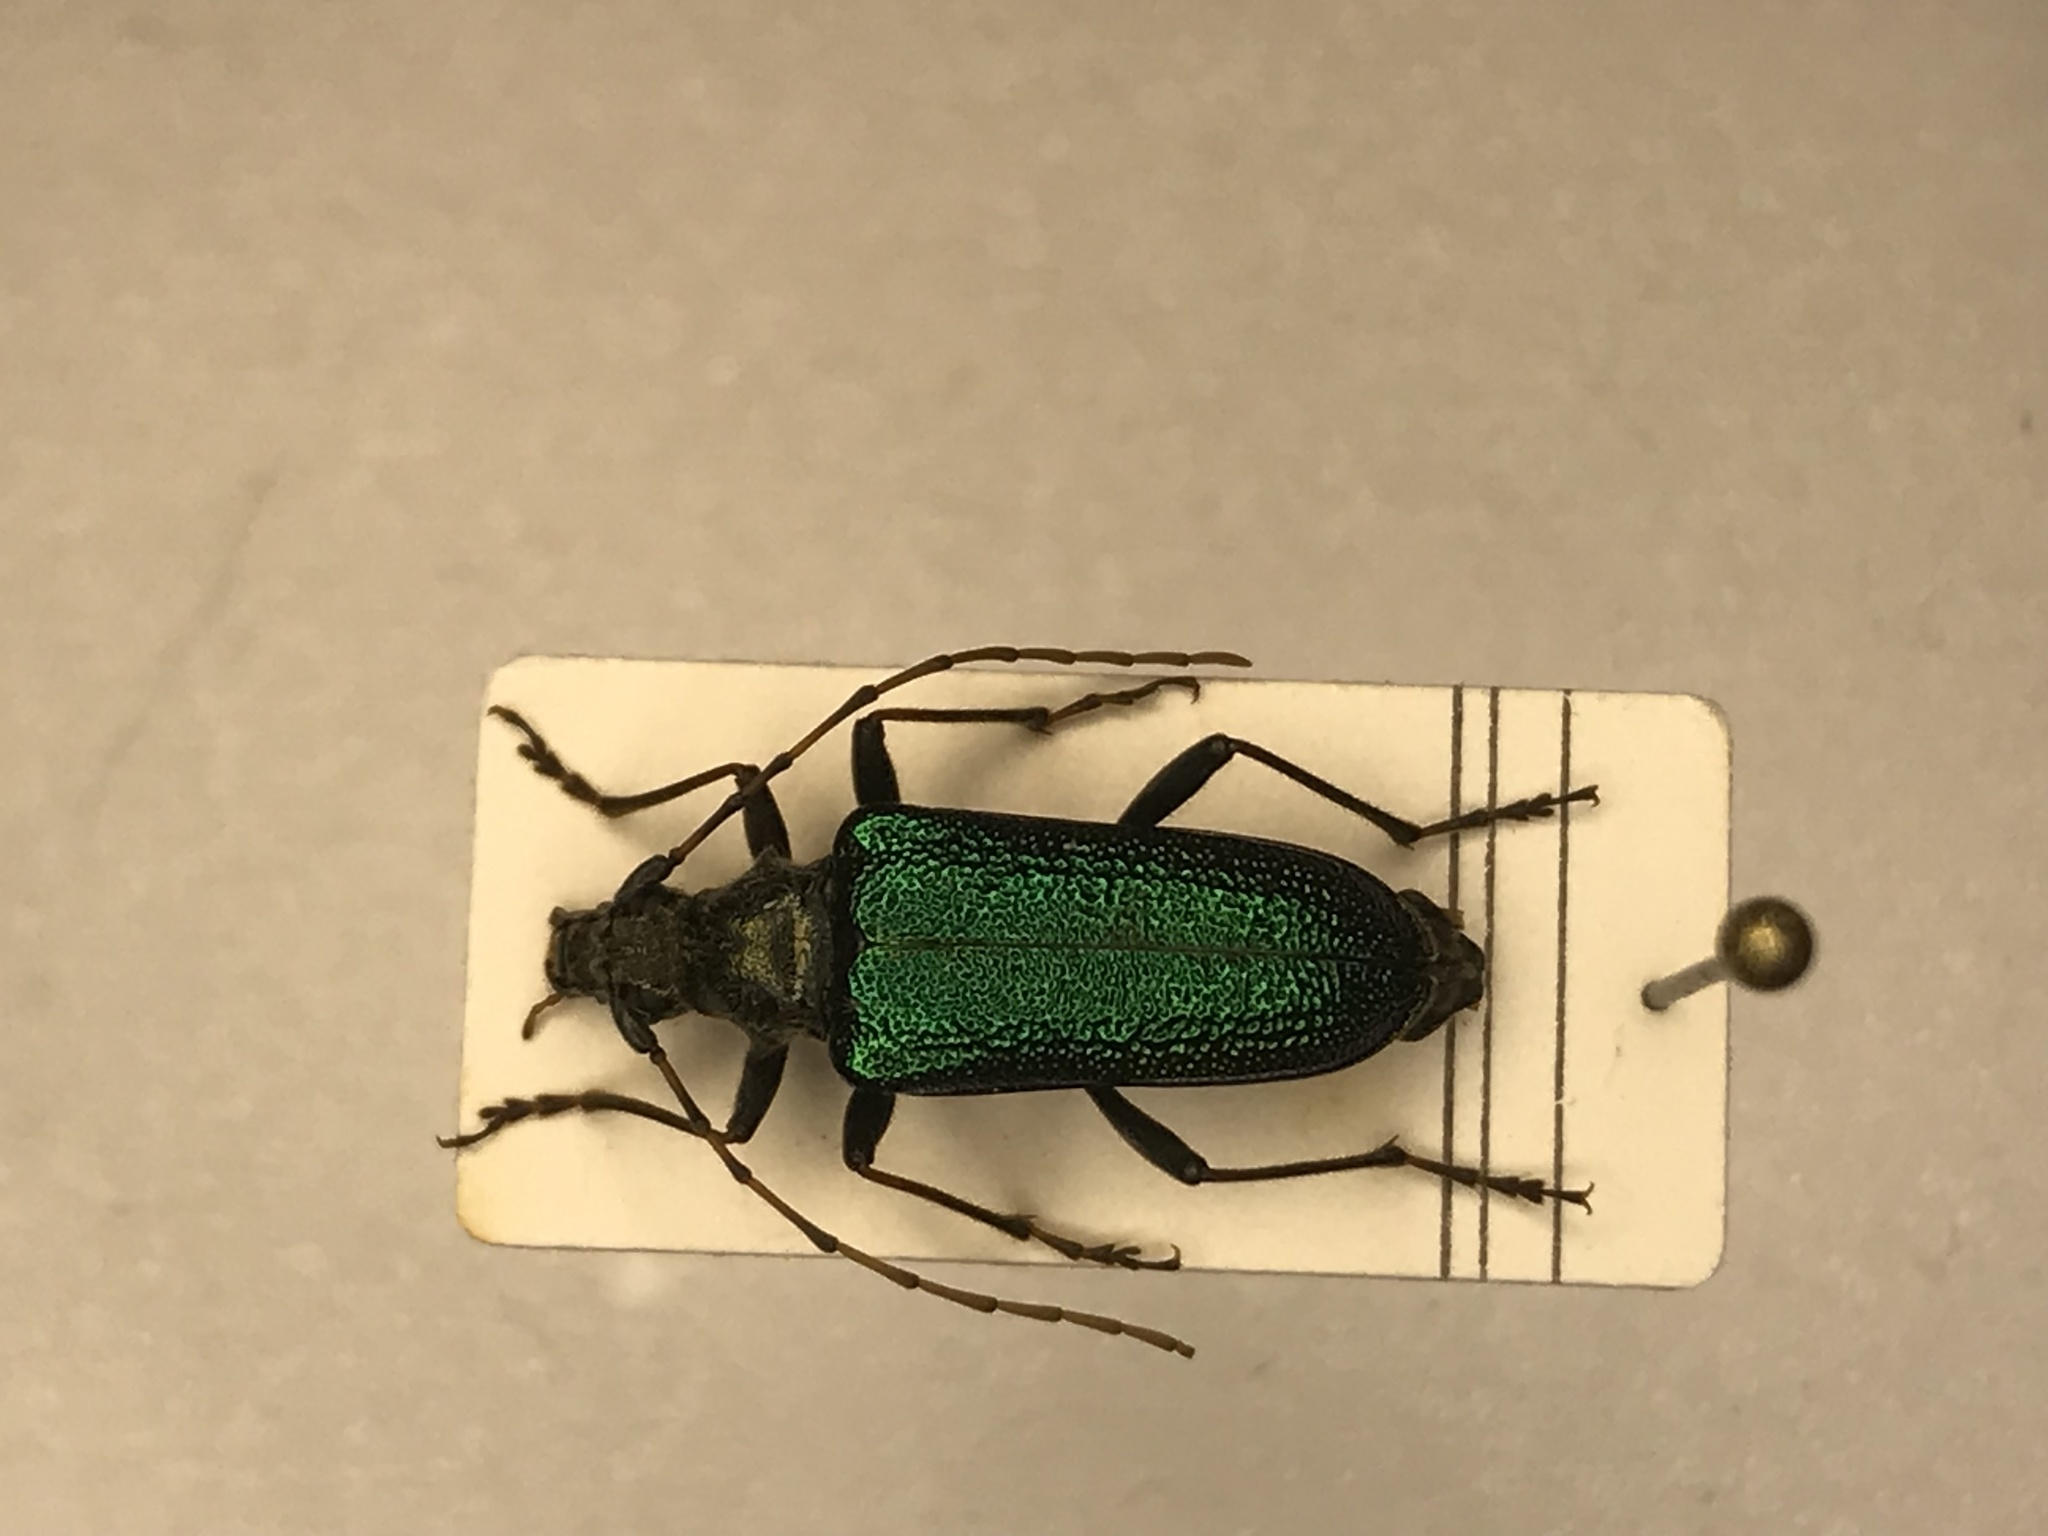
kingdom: Animalia
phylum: Arthropoda
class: Insecta
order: Coleoptera
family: Cerambycidae
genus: Anthophylax
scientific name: Anthophylax viridis
